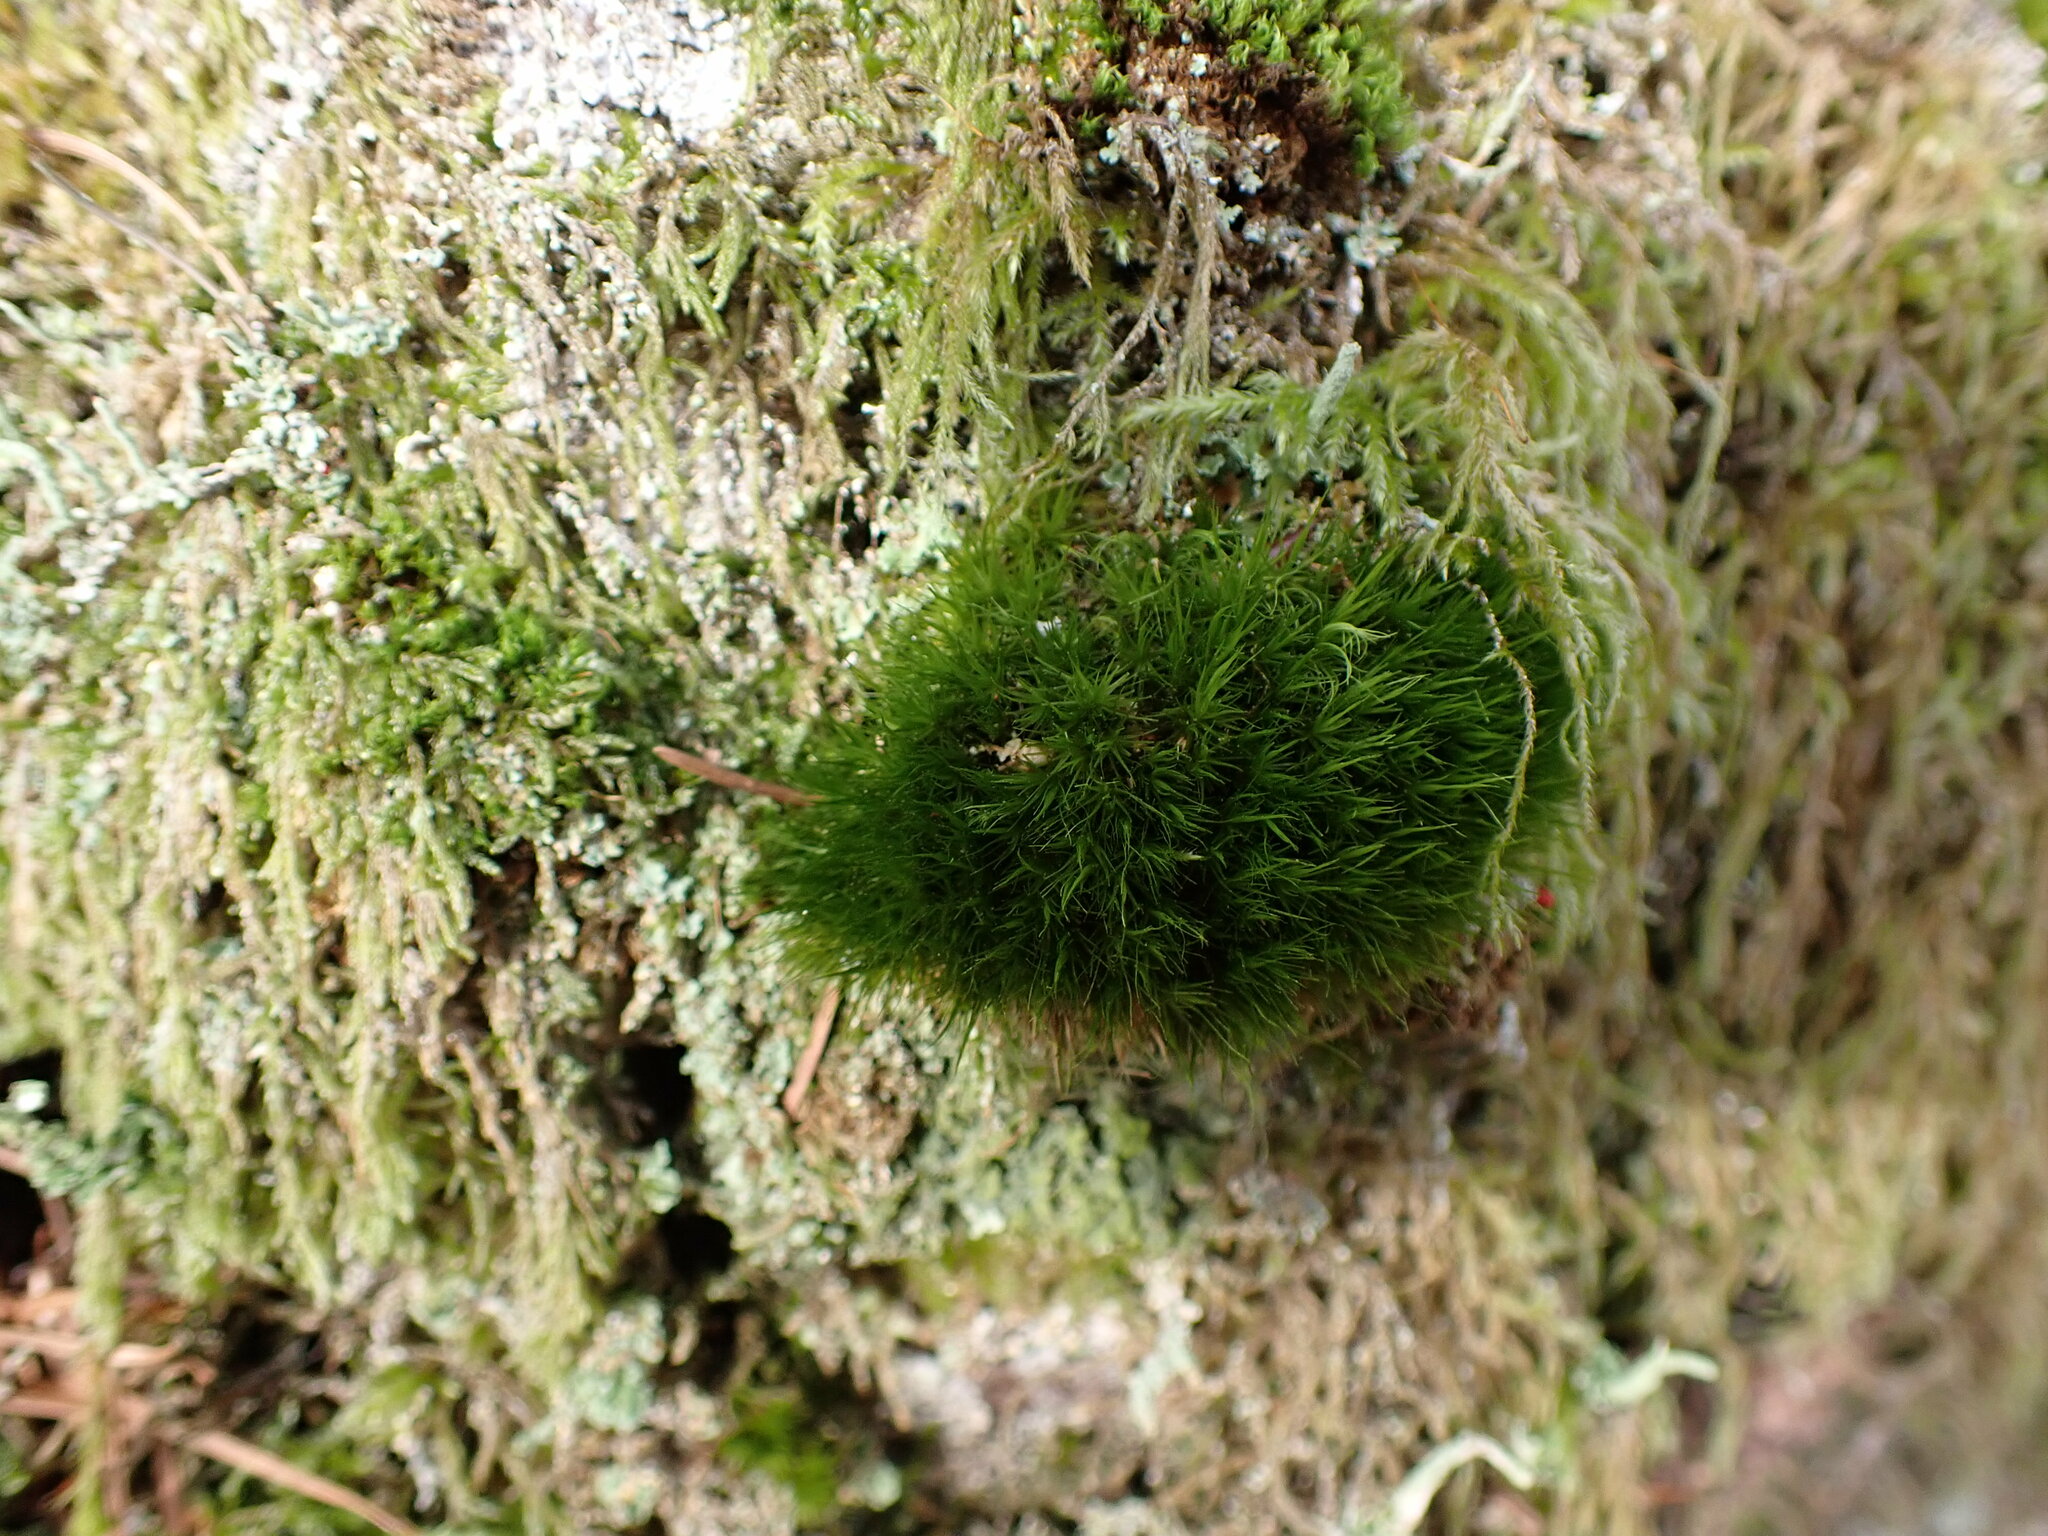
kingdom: Plantae
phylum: Bryophyta
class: Bryopsida
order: Dicranales
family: Dicranaceae
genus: Orthodicranum
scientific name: Orthodicranum tauricum
